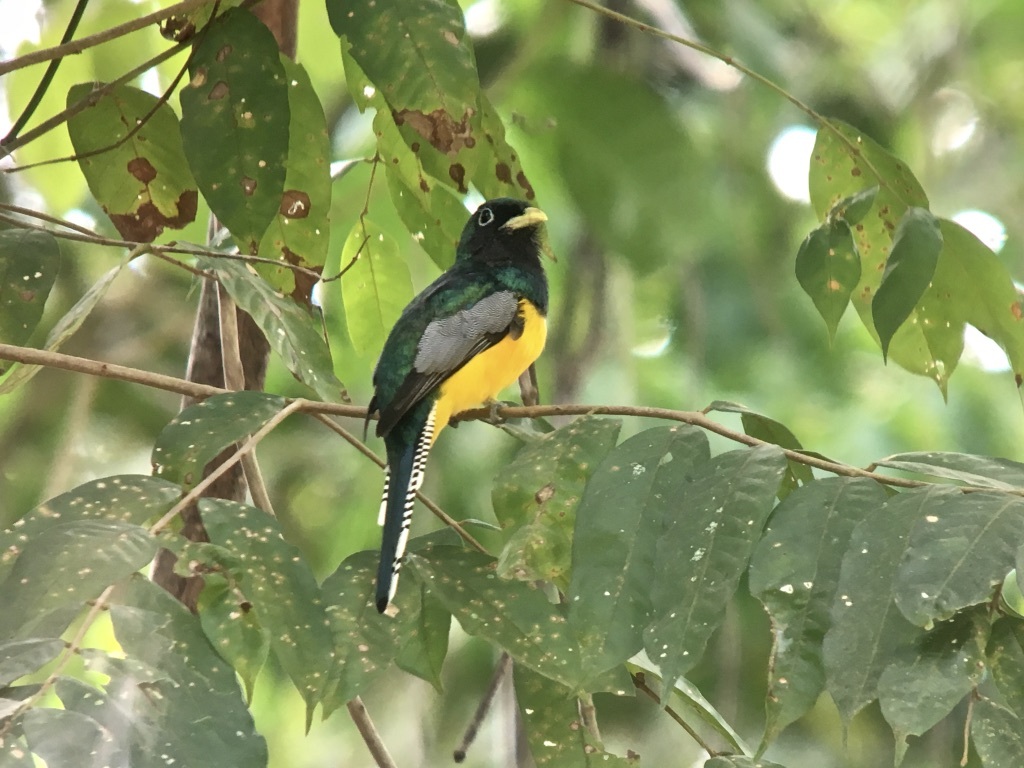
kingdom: Animalia
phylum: Chordata
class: Aves
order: Trogoniformes
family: Trogonidae
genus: Trogon
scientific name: Trogon rufus
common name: Black-throated trogon
